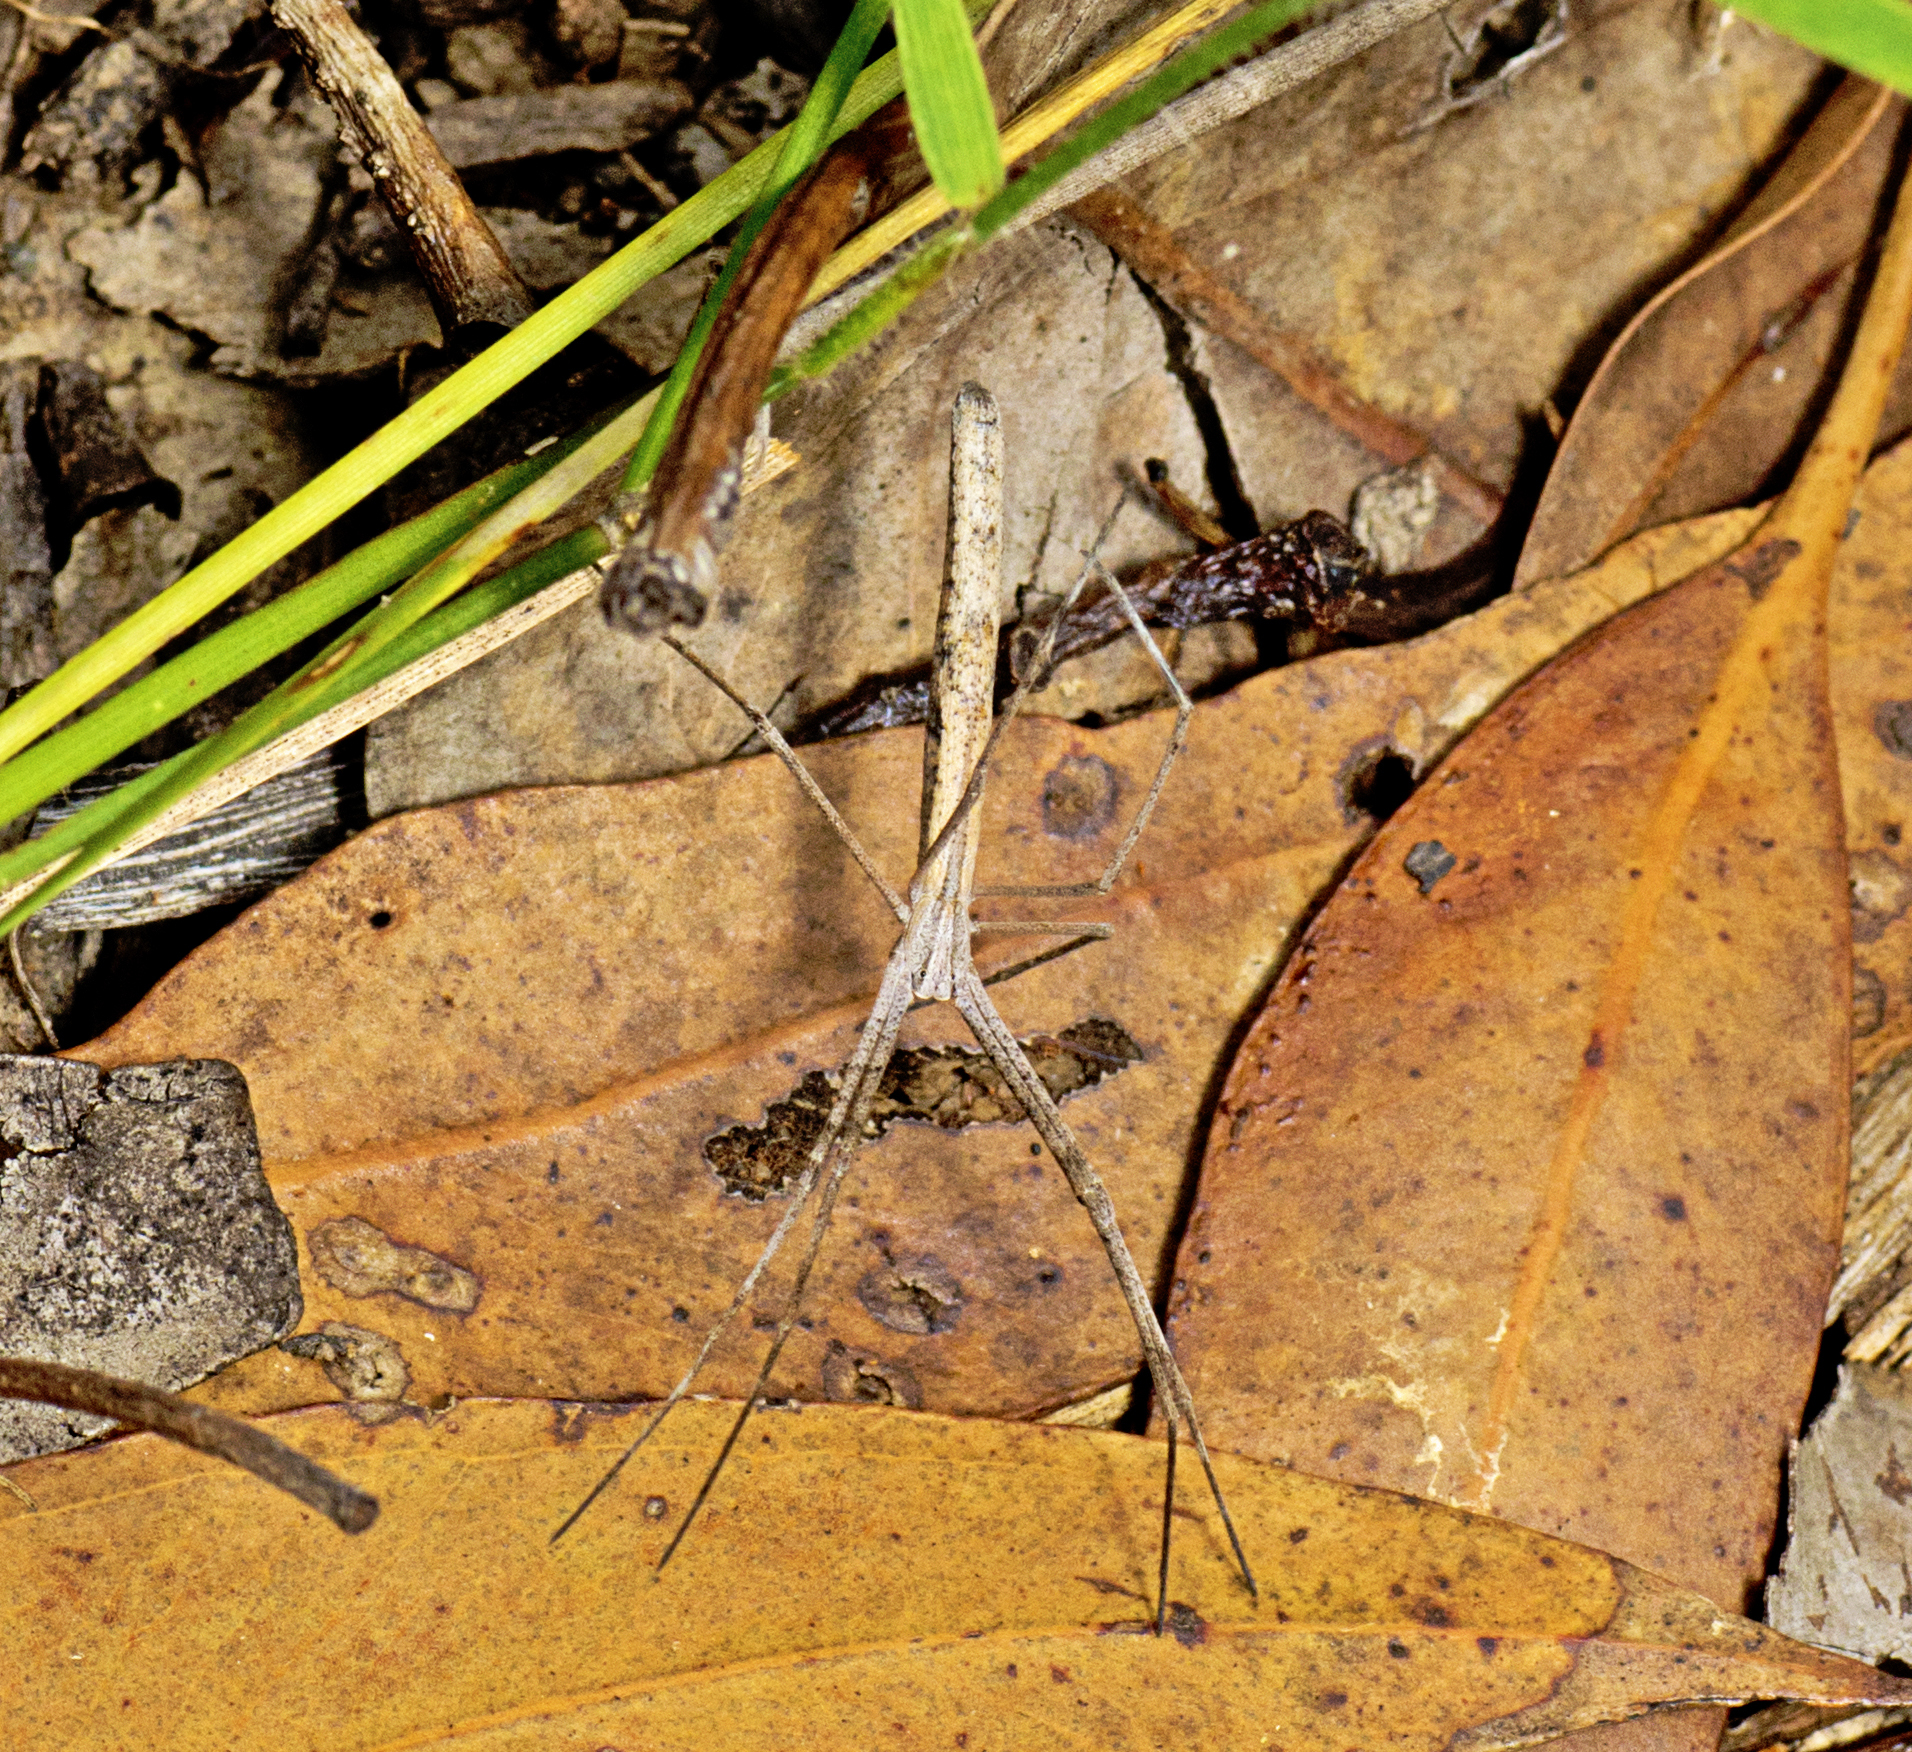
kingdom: Animalia
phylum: Arthropoda
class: Arachnida
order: Araneae
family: Deinopidae
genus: Deinopis
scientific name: Deinopis subrufa
